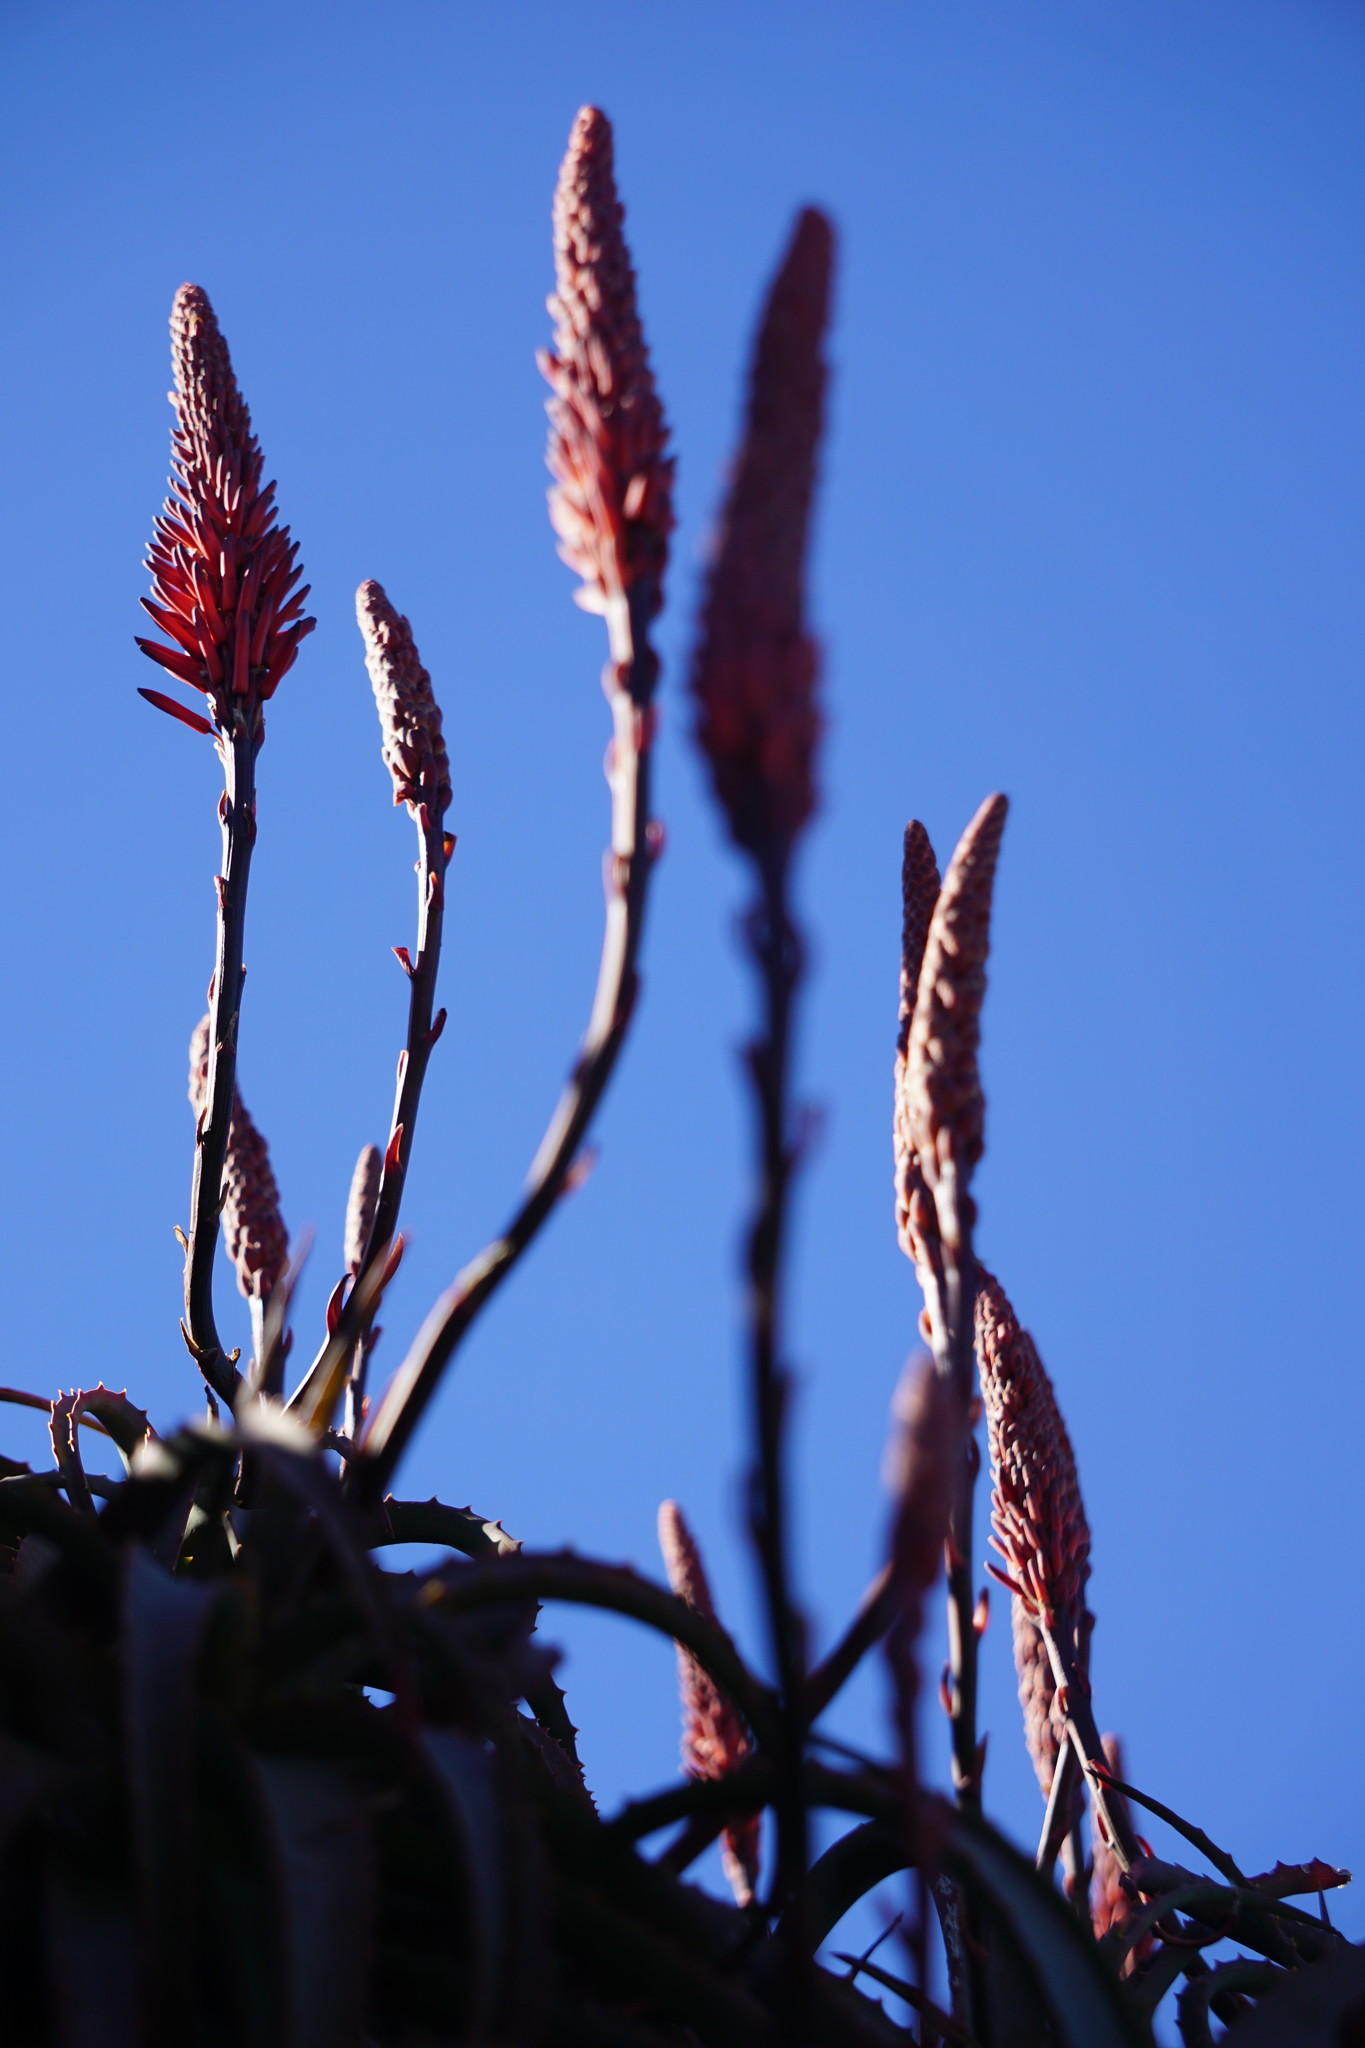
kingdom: Plantae
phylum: Tracheophyta
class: Liliopsida
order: Asparagales
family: Asphodelaceae
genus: Aloe
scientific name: Aloe arborescens
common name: Candelabra aloe
